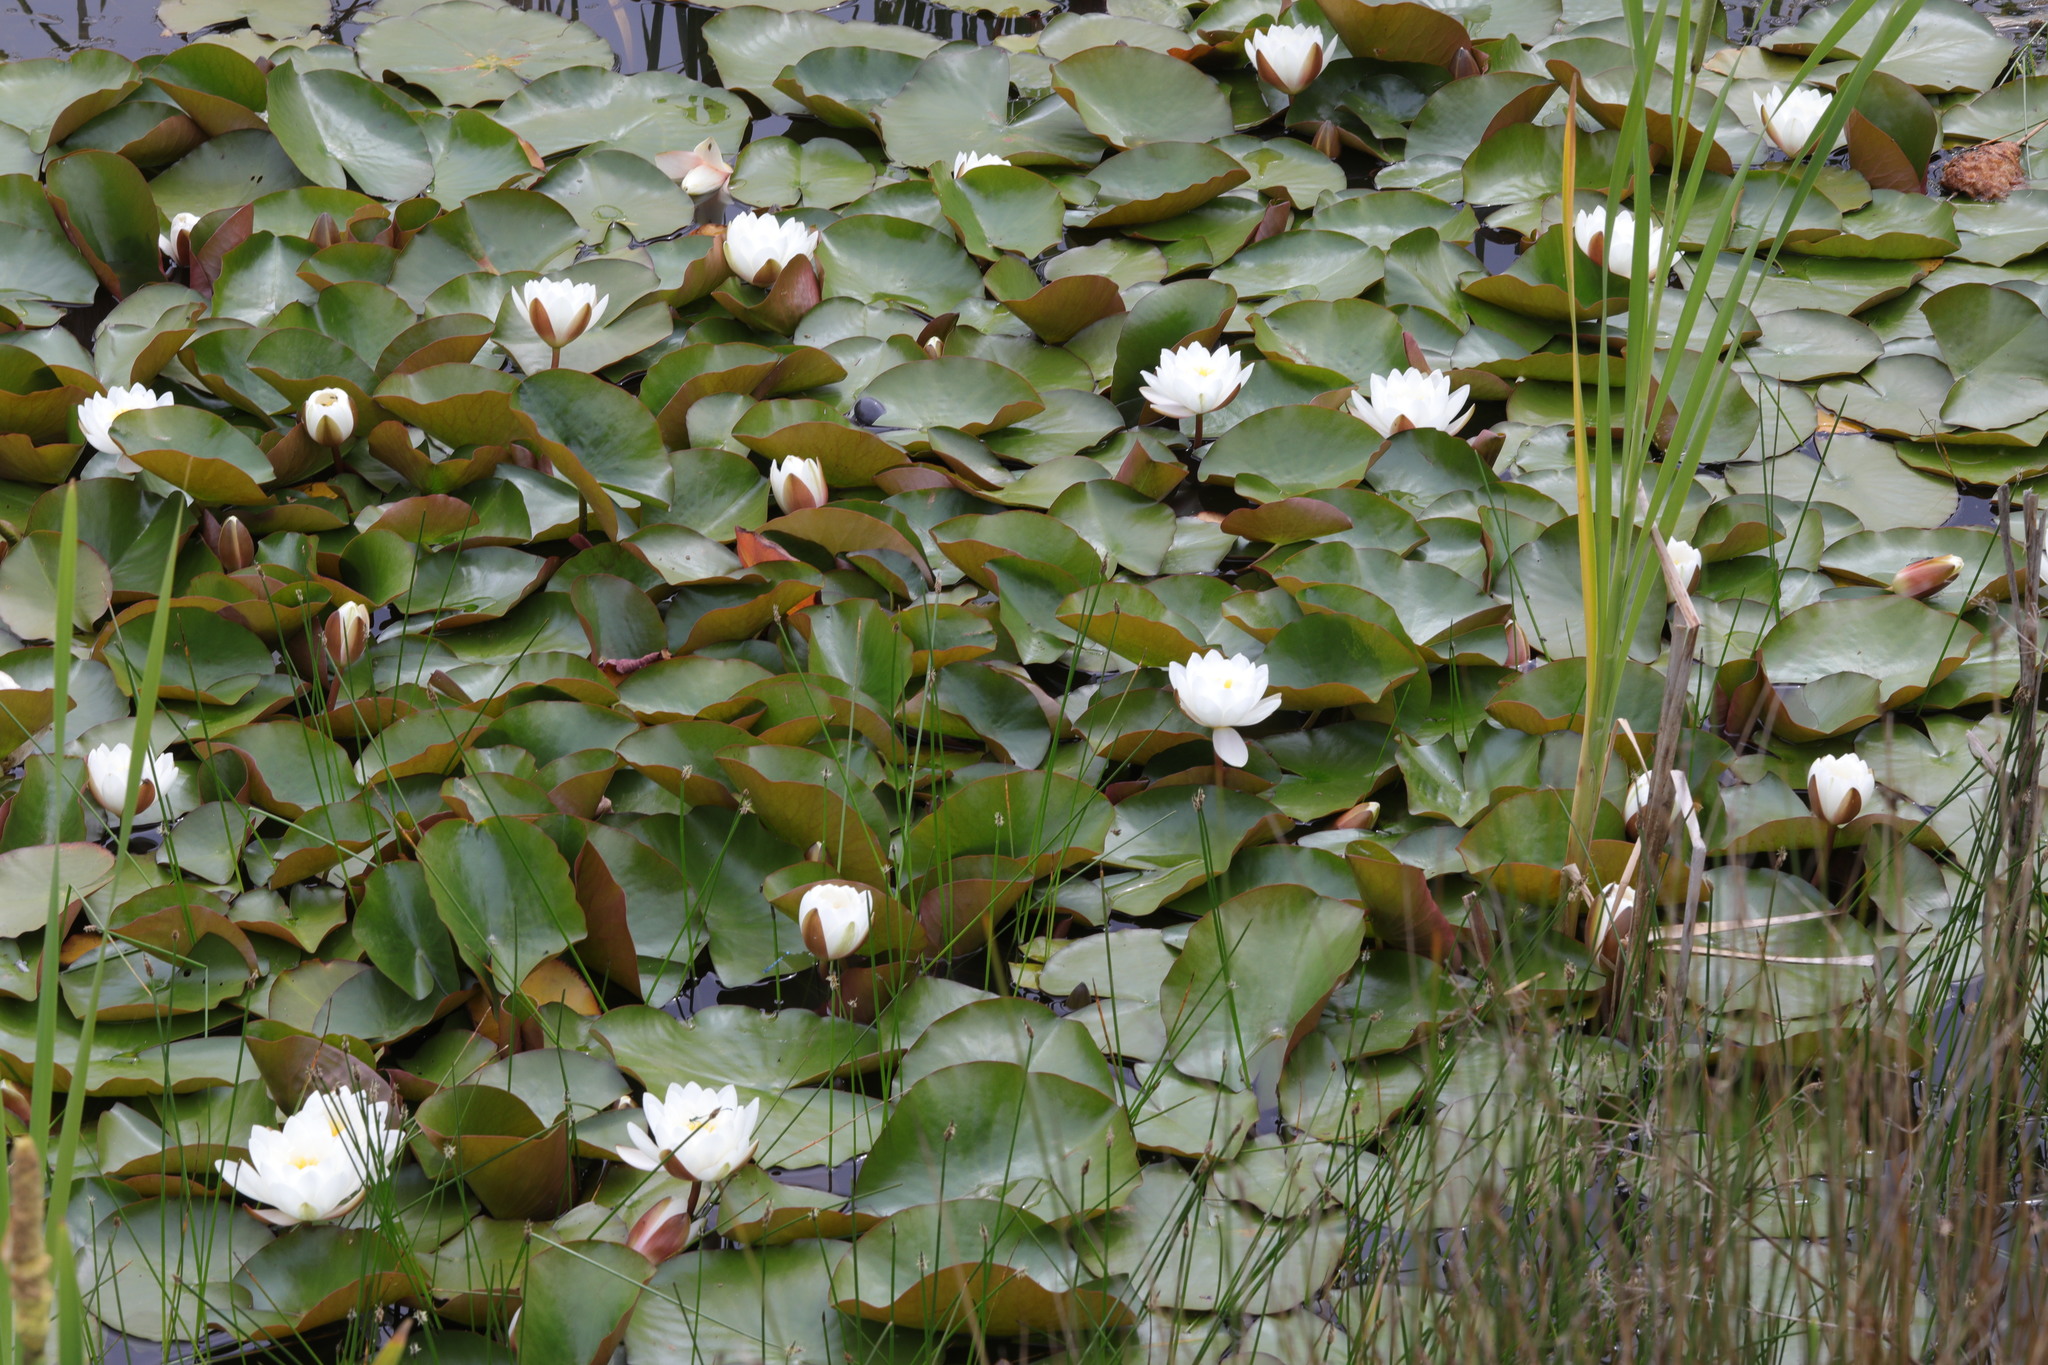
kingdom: Plantae
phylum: Tracheophyta
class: Magnoliopsida
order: Nymphaeales
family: Nymphaeaceae
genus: Nymphaea
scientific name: Nymphaea alba
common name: White water-lily
